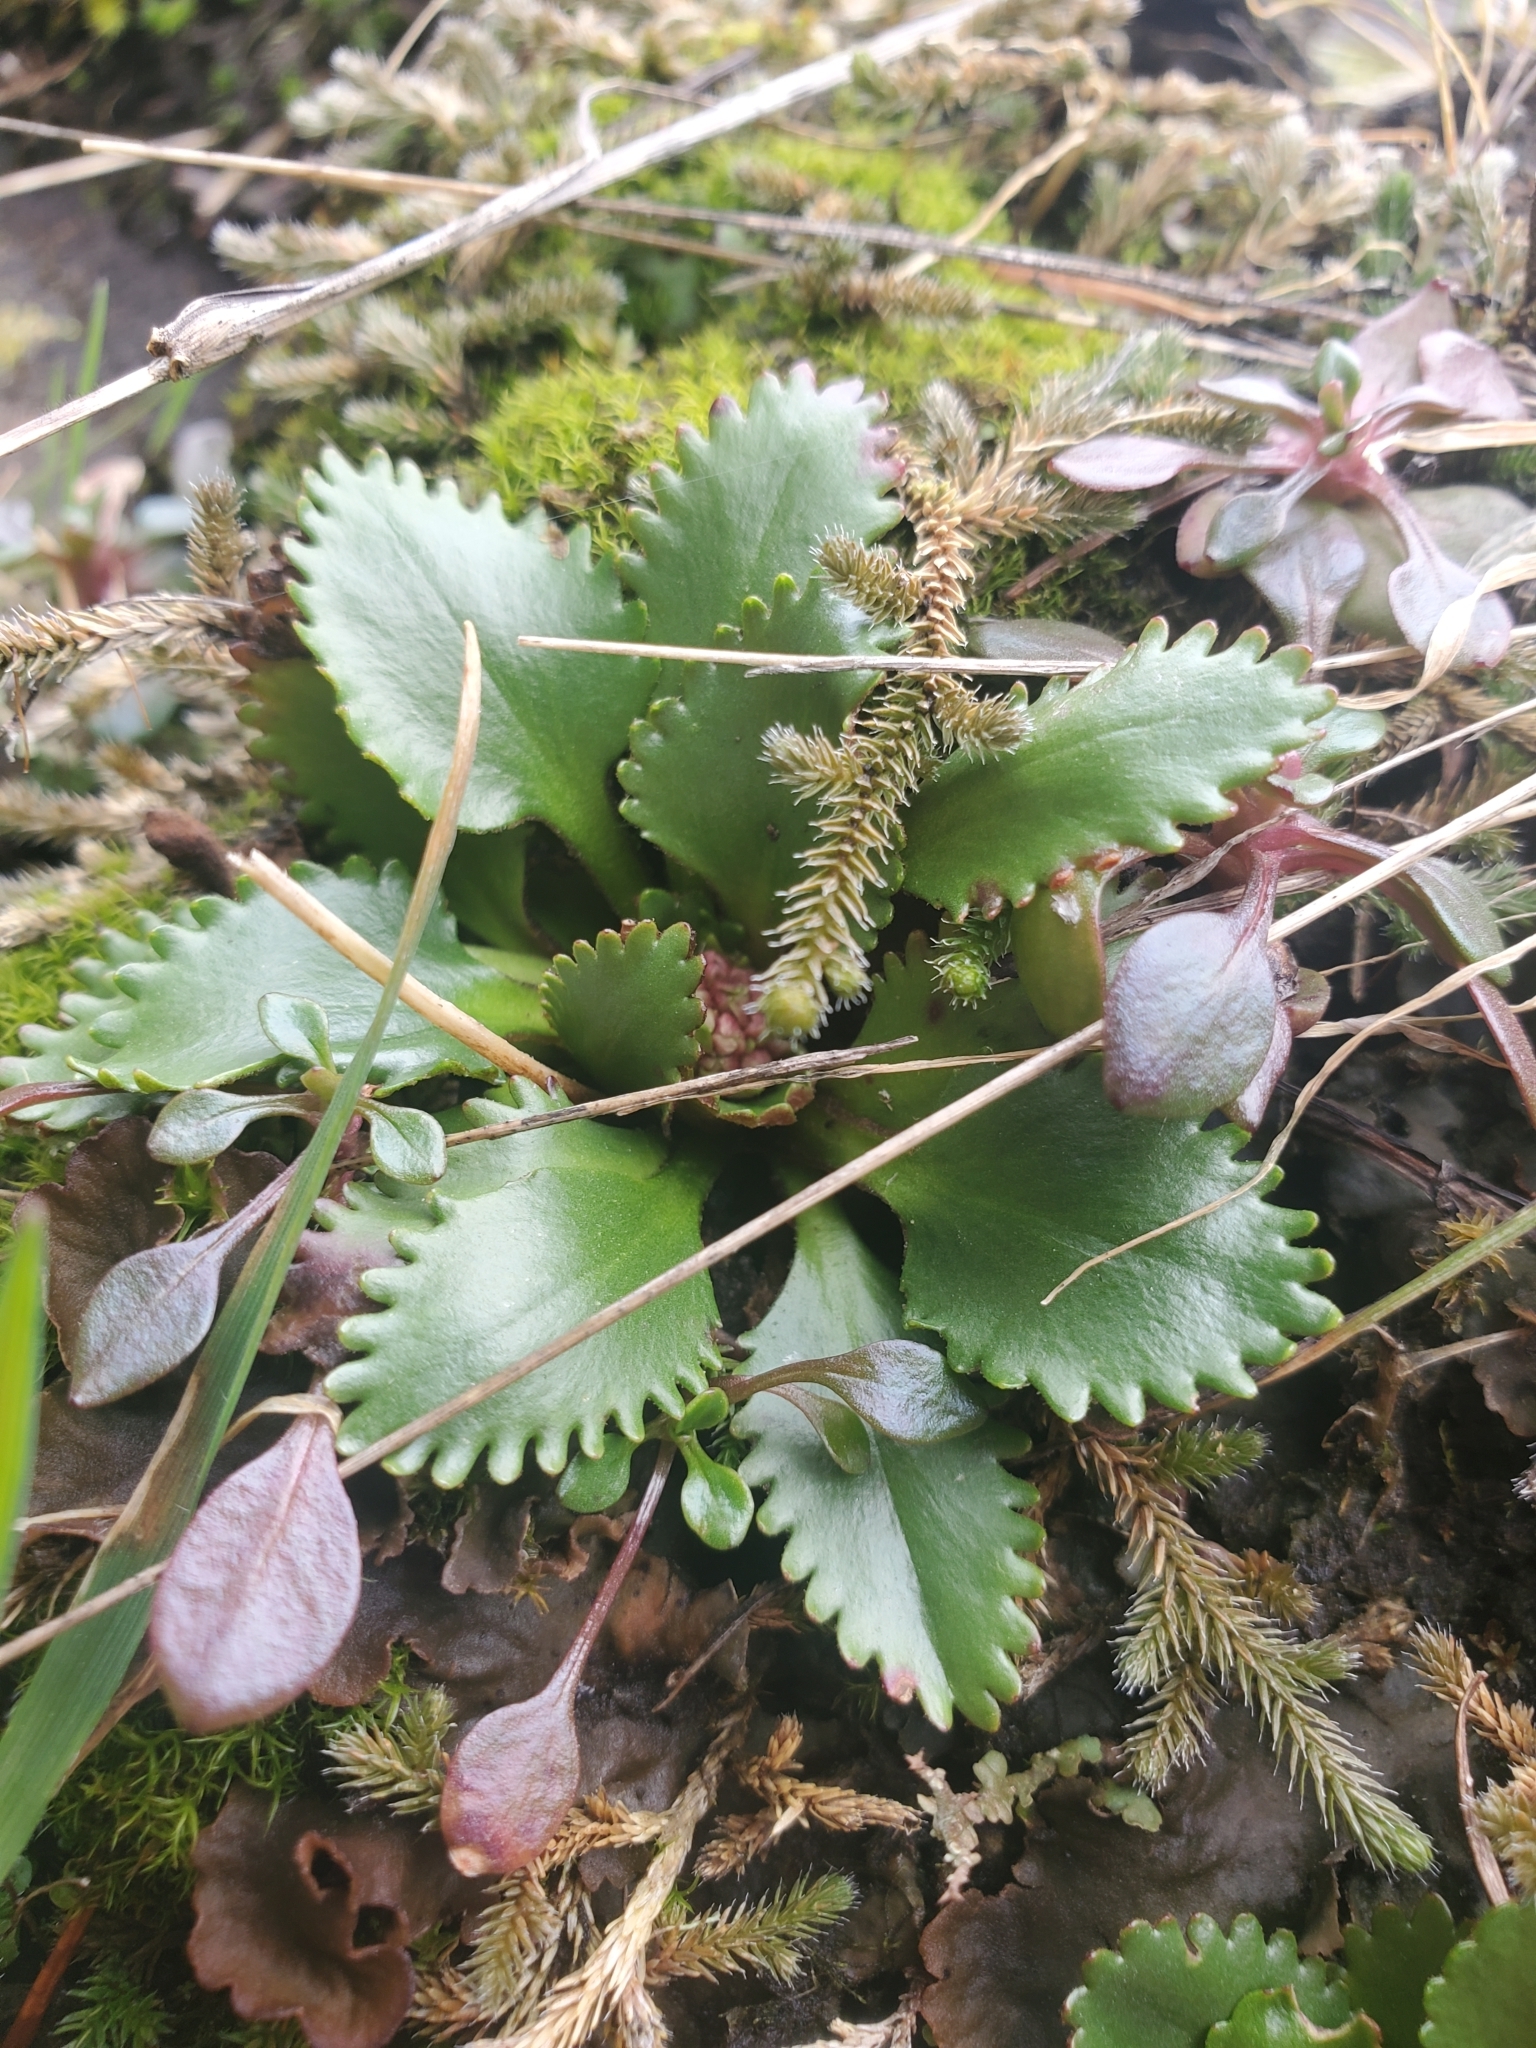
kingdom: Plantae
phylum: Tracheophyta
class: Magnoliopsida
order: Saxifragales
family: Saxifragaceae
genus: Micranthes
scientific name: Micranthes rufidula
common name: Rustyhair saxifrage
